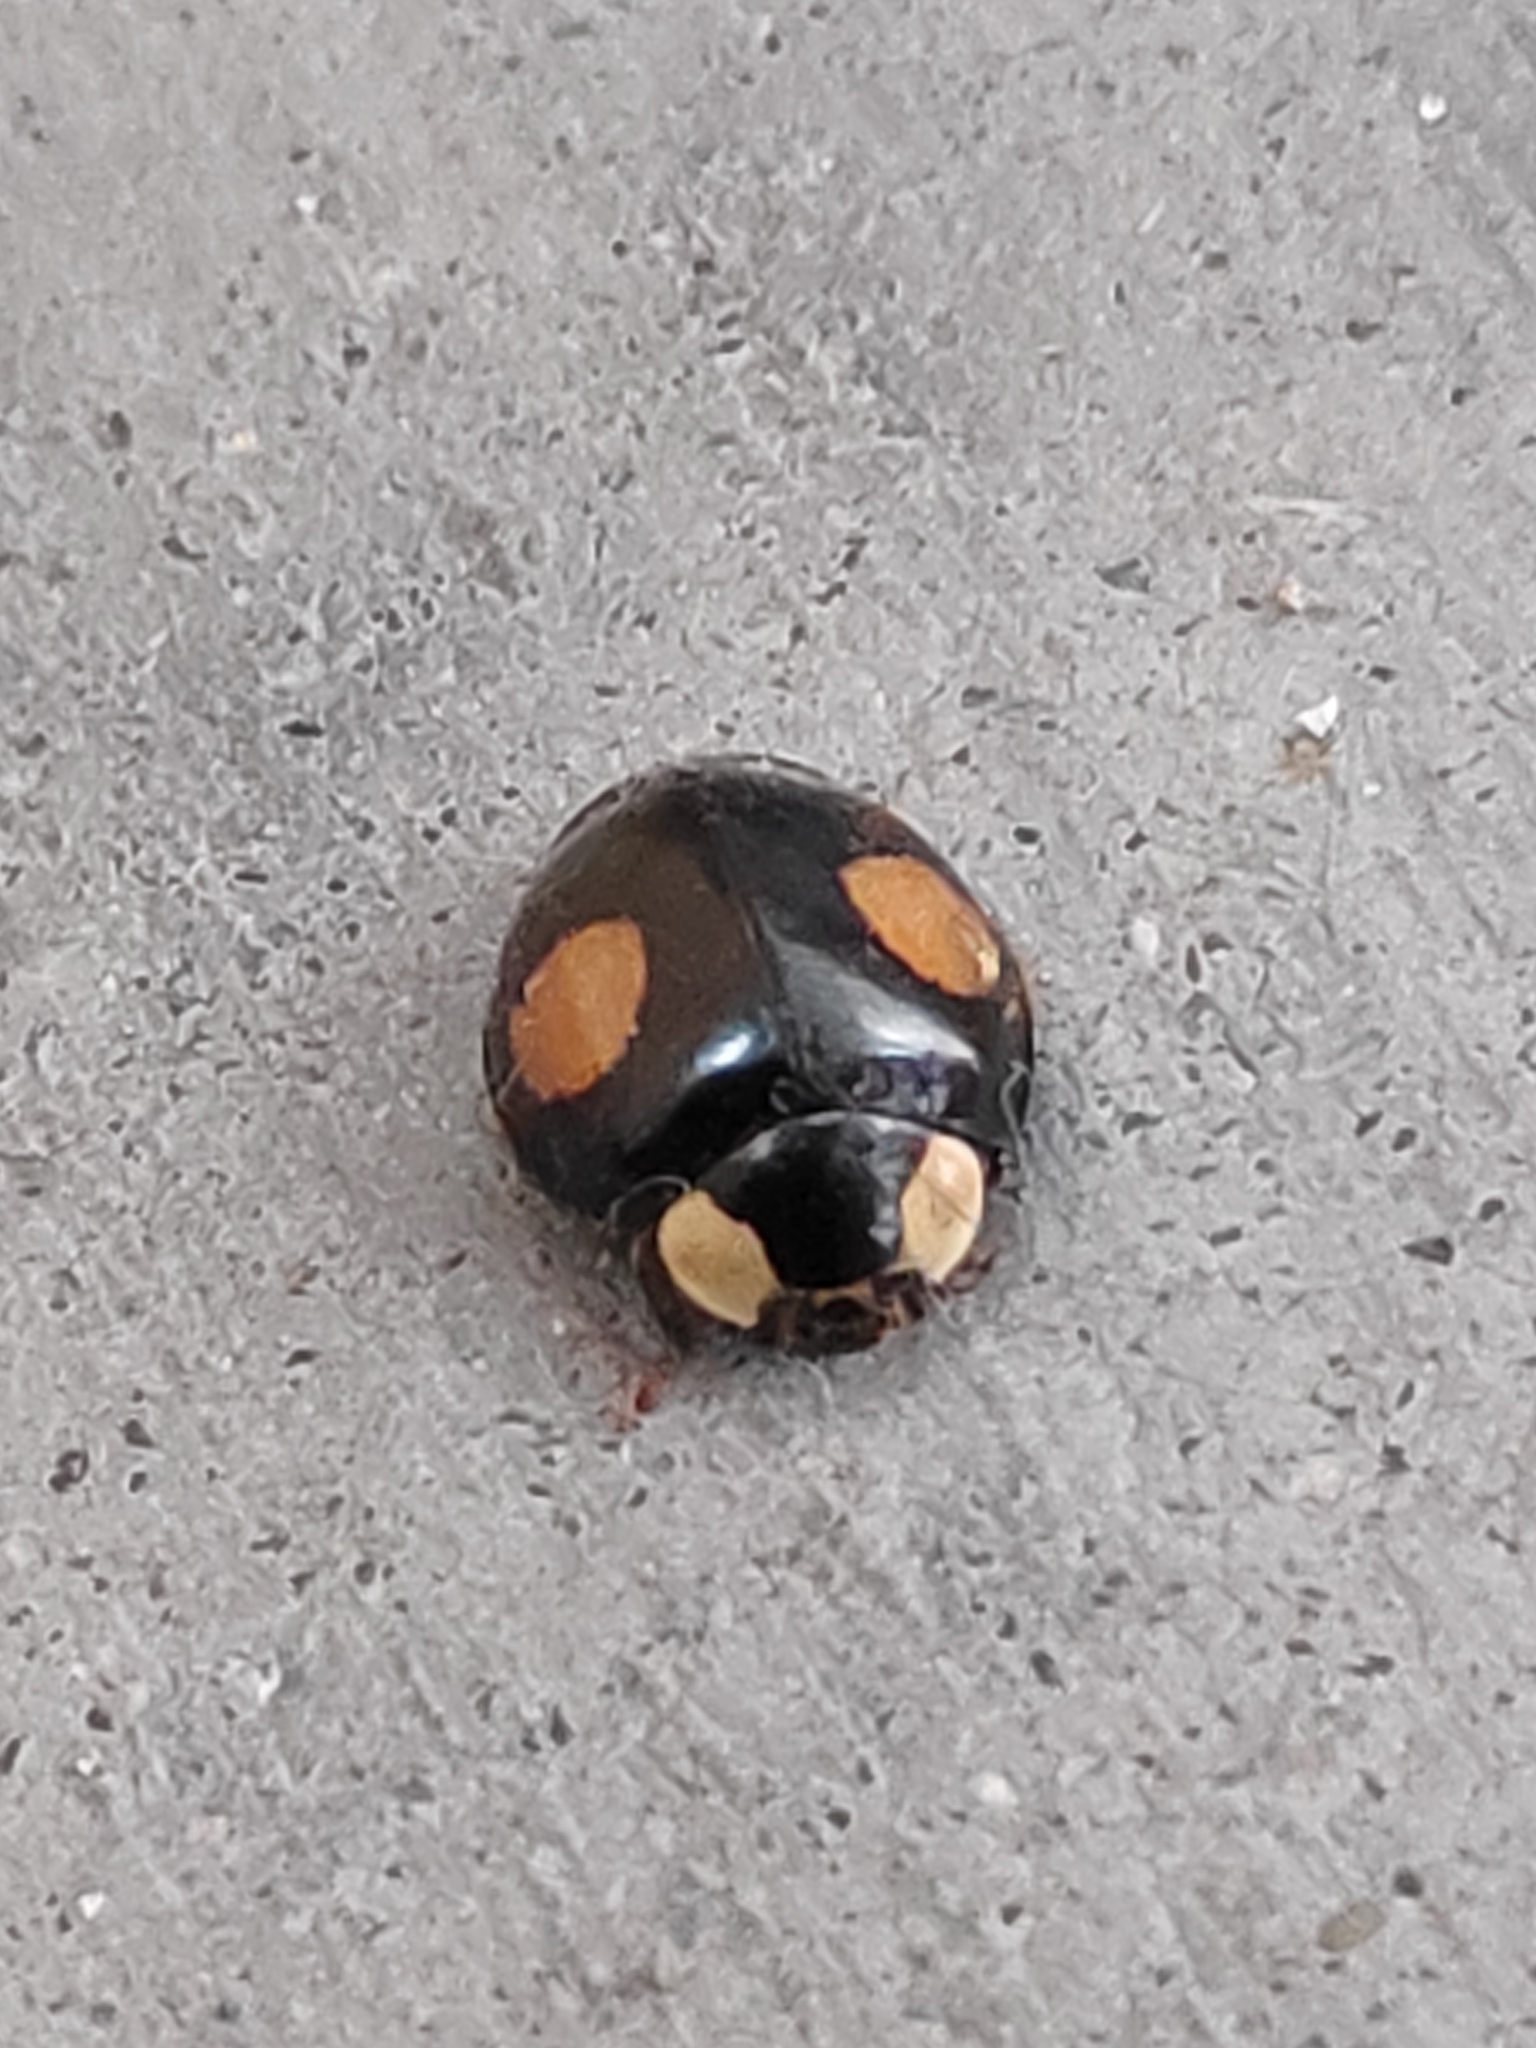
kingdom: Animalia
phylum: Arthropoda
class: Insecta
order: Coleoptera
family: Coccinellidae
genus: Harmonia
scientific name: Harmonia axyridis
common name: Harlequin ladybird
